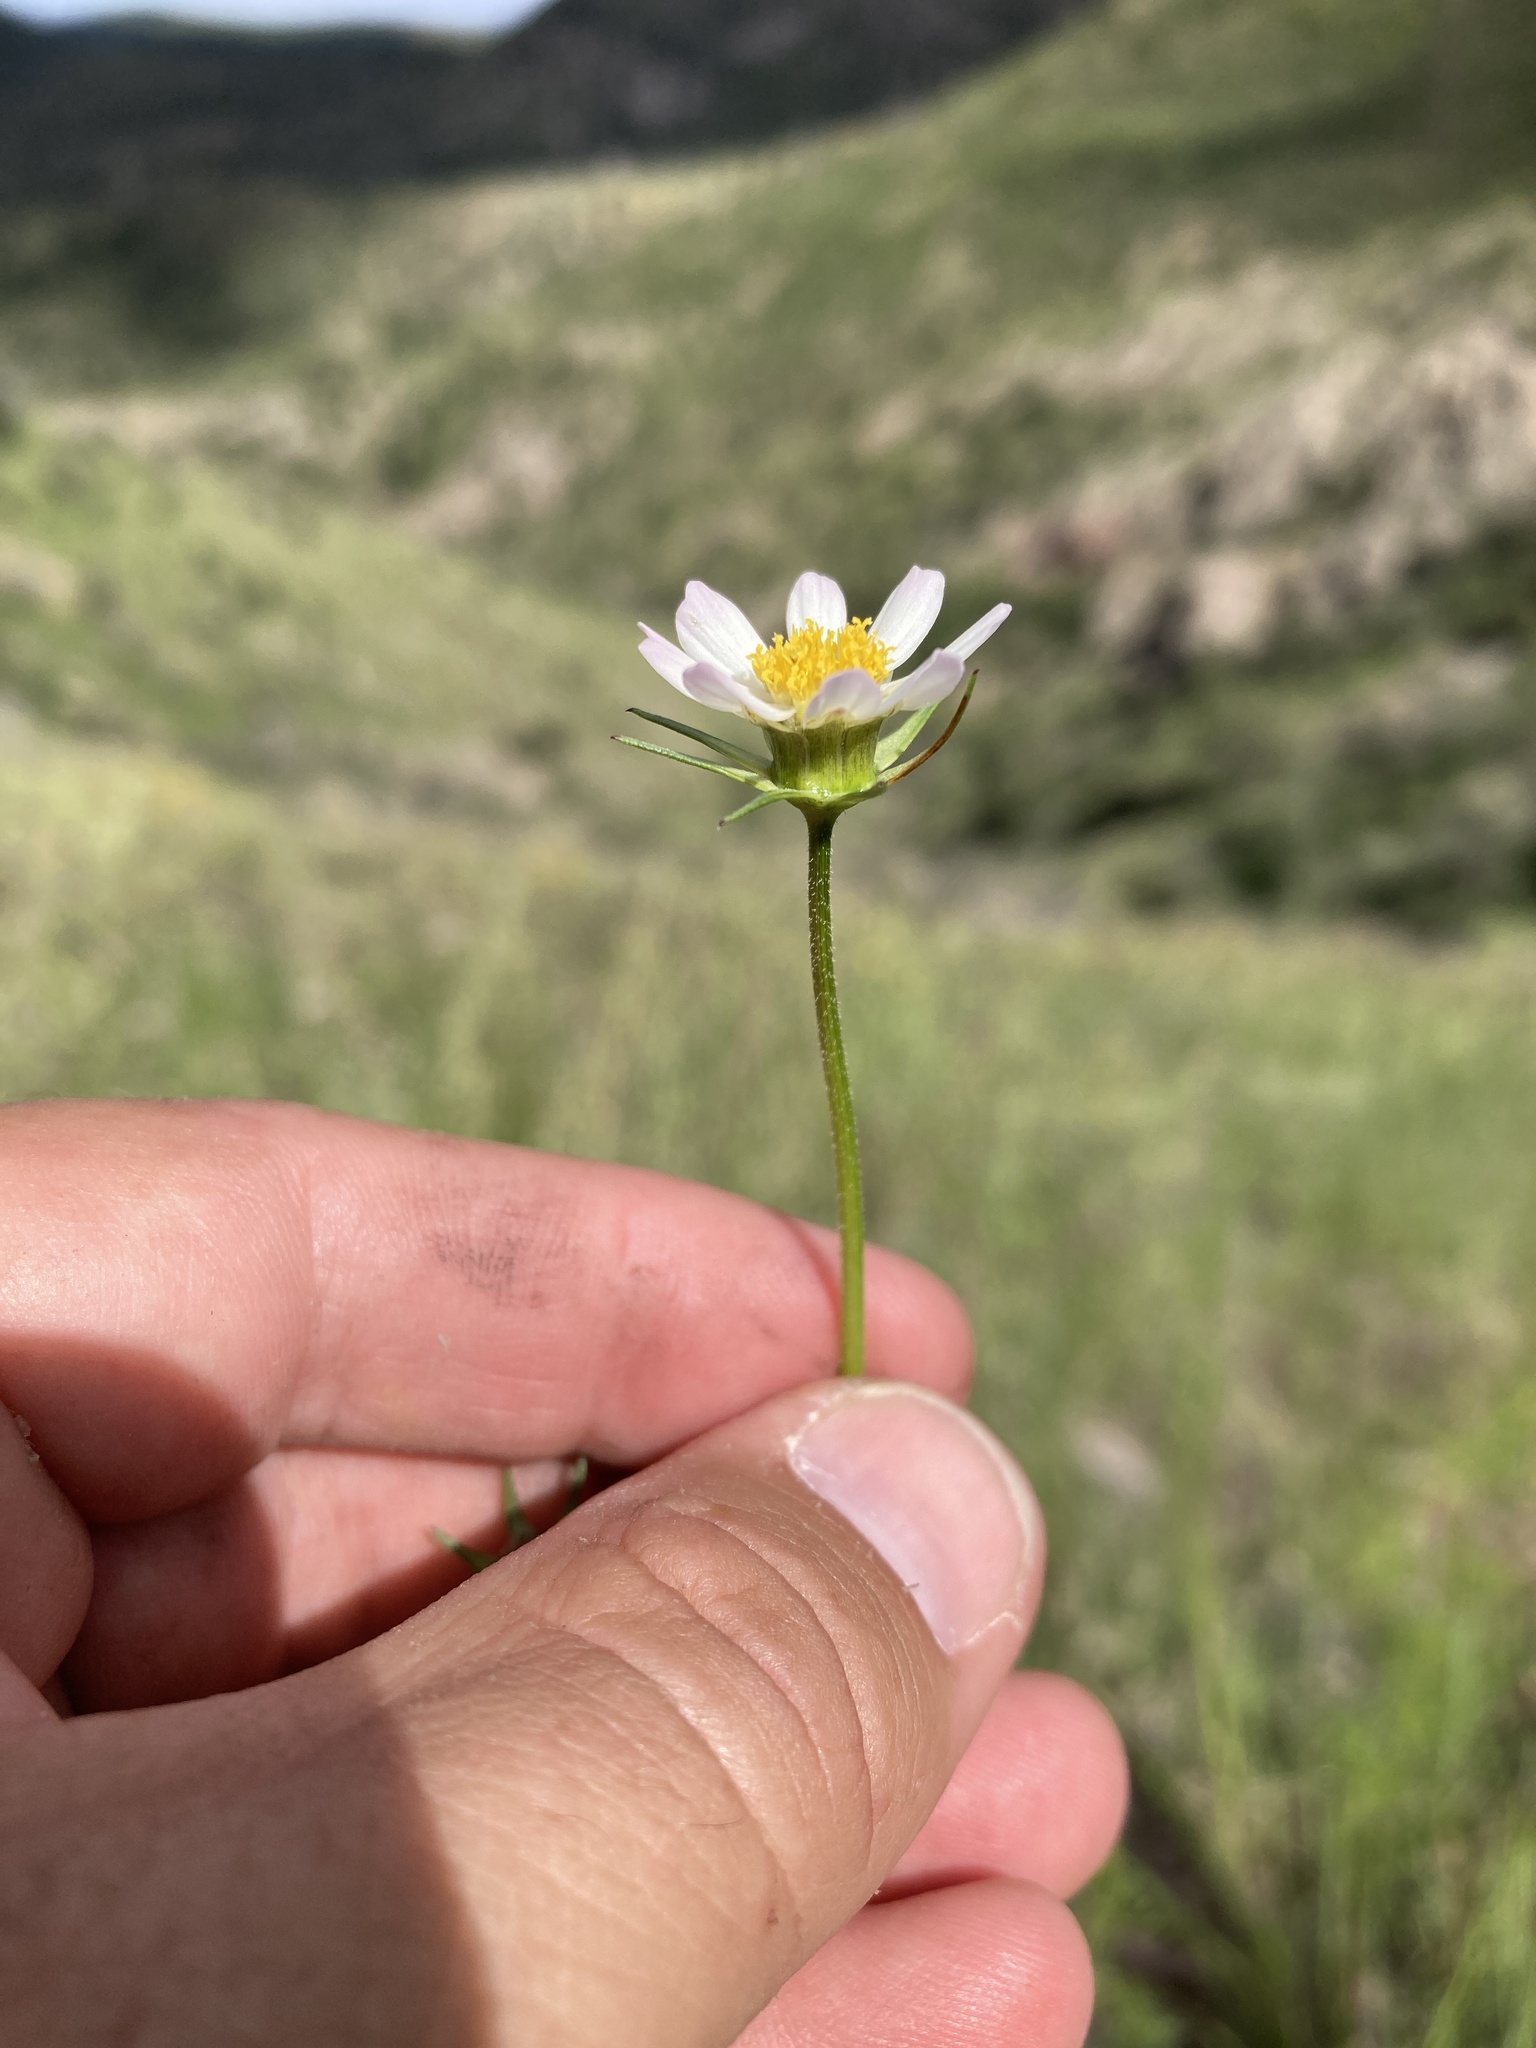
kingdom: Plantae
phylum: Tracheophyta
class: Magnoliopsida
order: Asterales
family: Asteraceae
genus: Cosmos
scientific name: Cosmos parviflorus
